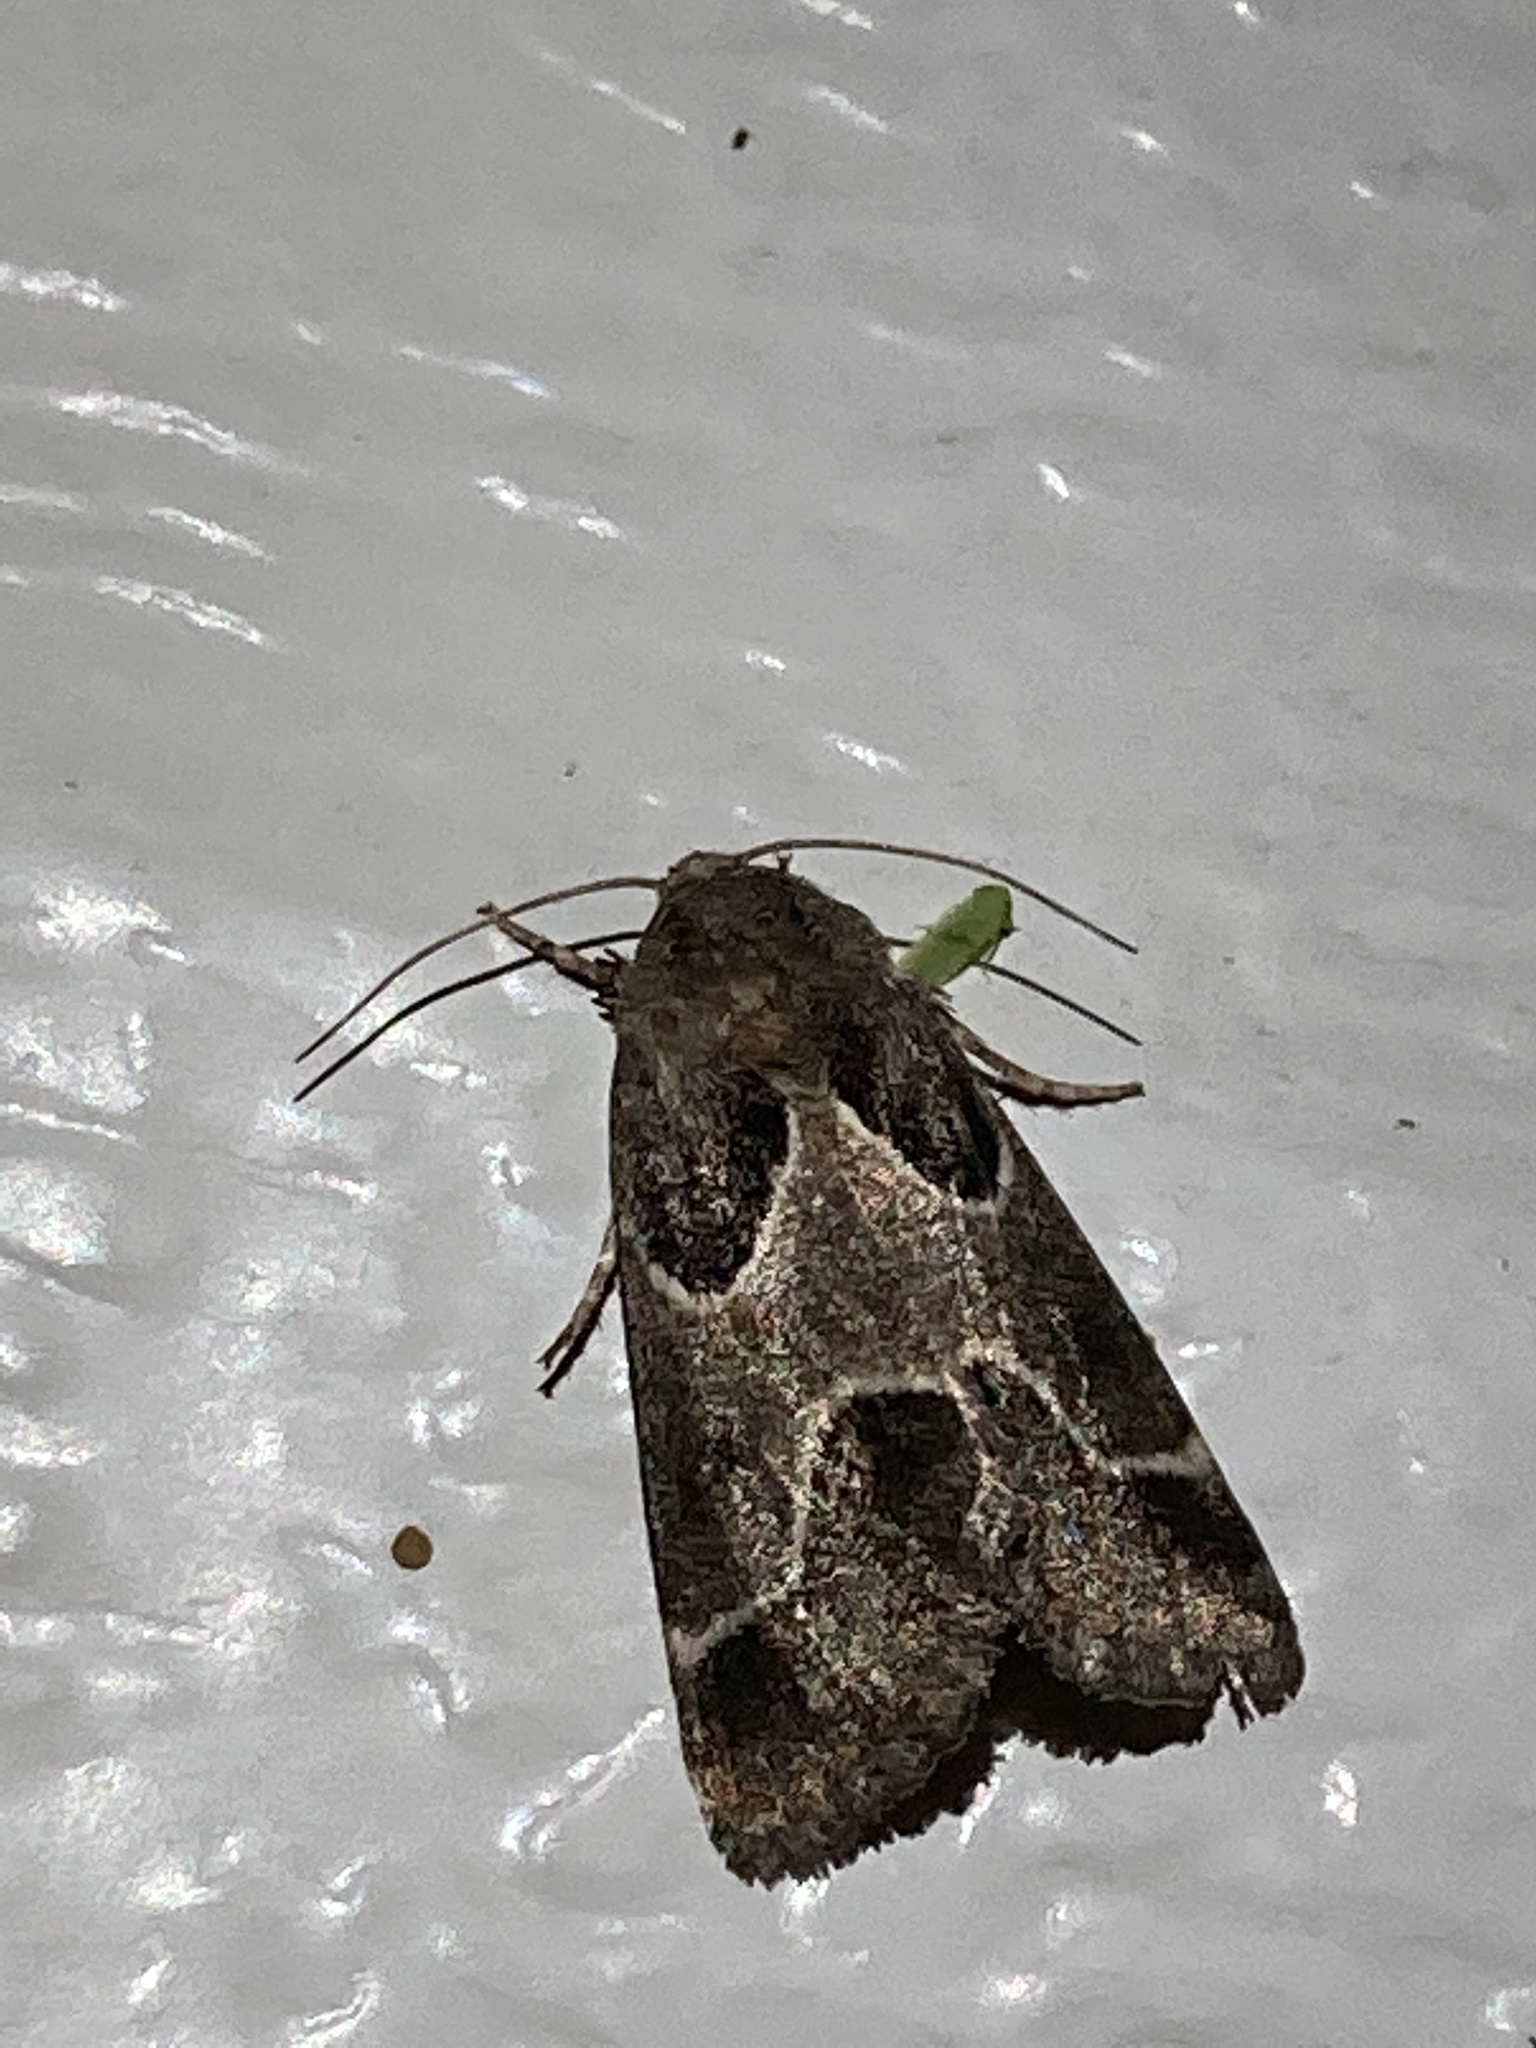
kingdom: Animalia
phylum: Arthropoda
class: Insecta
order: Lepidoptera
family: Noctuidae
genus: Schinia
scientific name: Schinia rivulosa
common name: Scarce meal-moth
